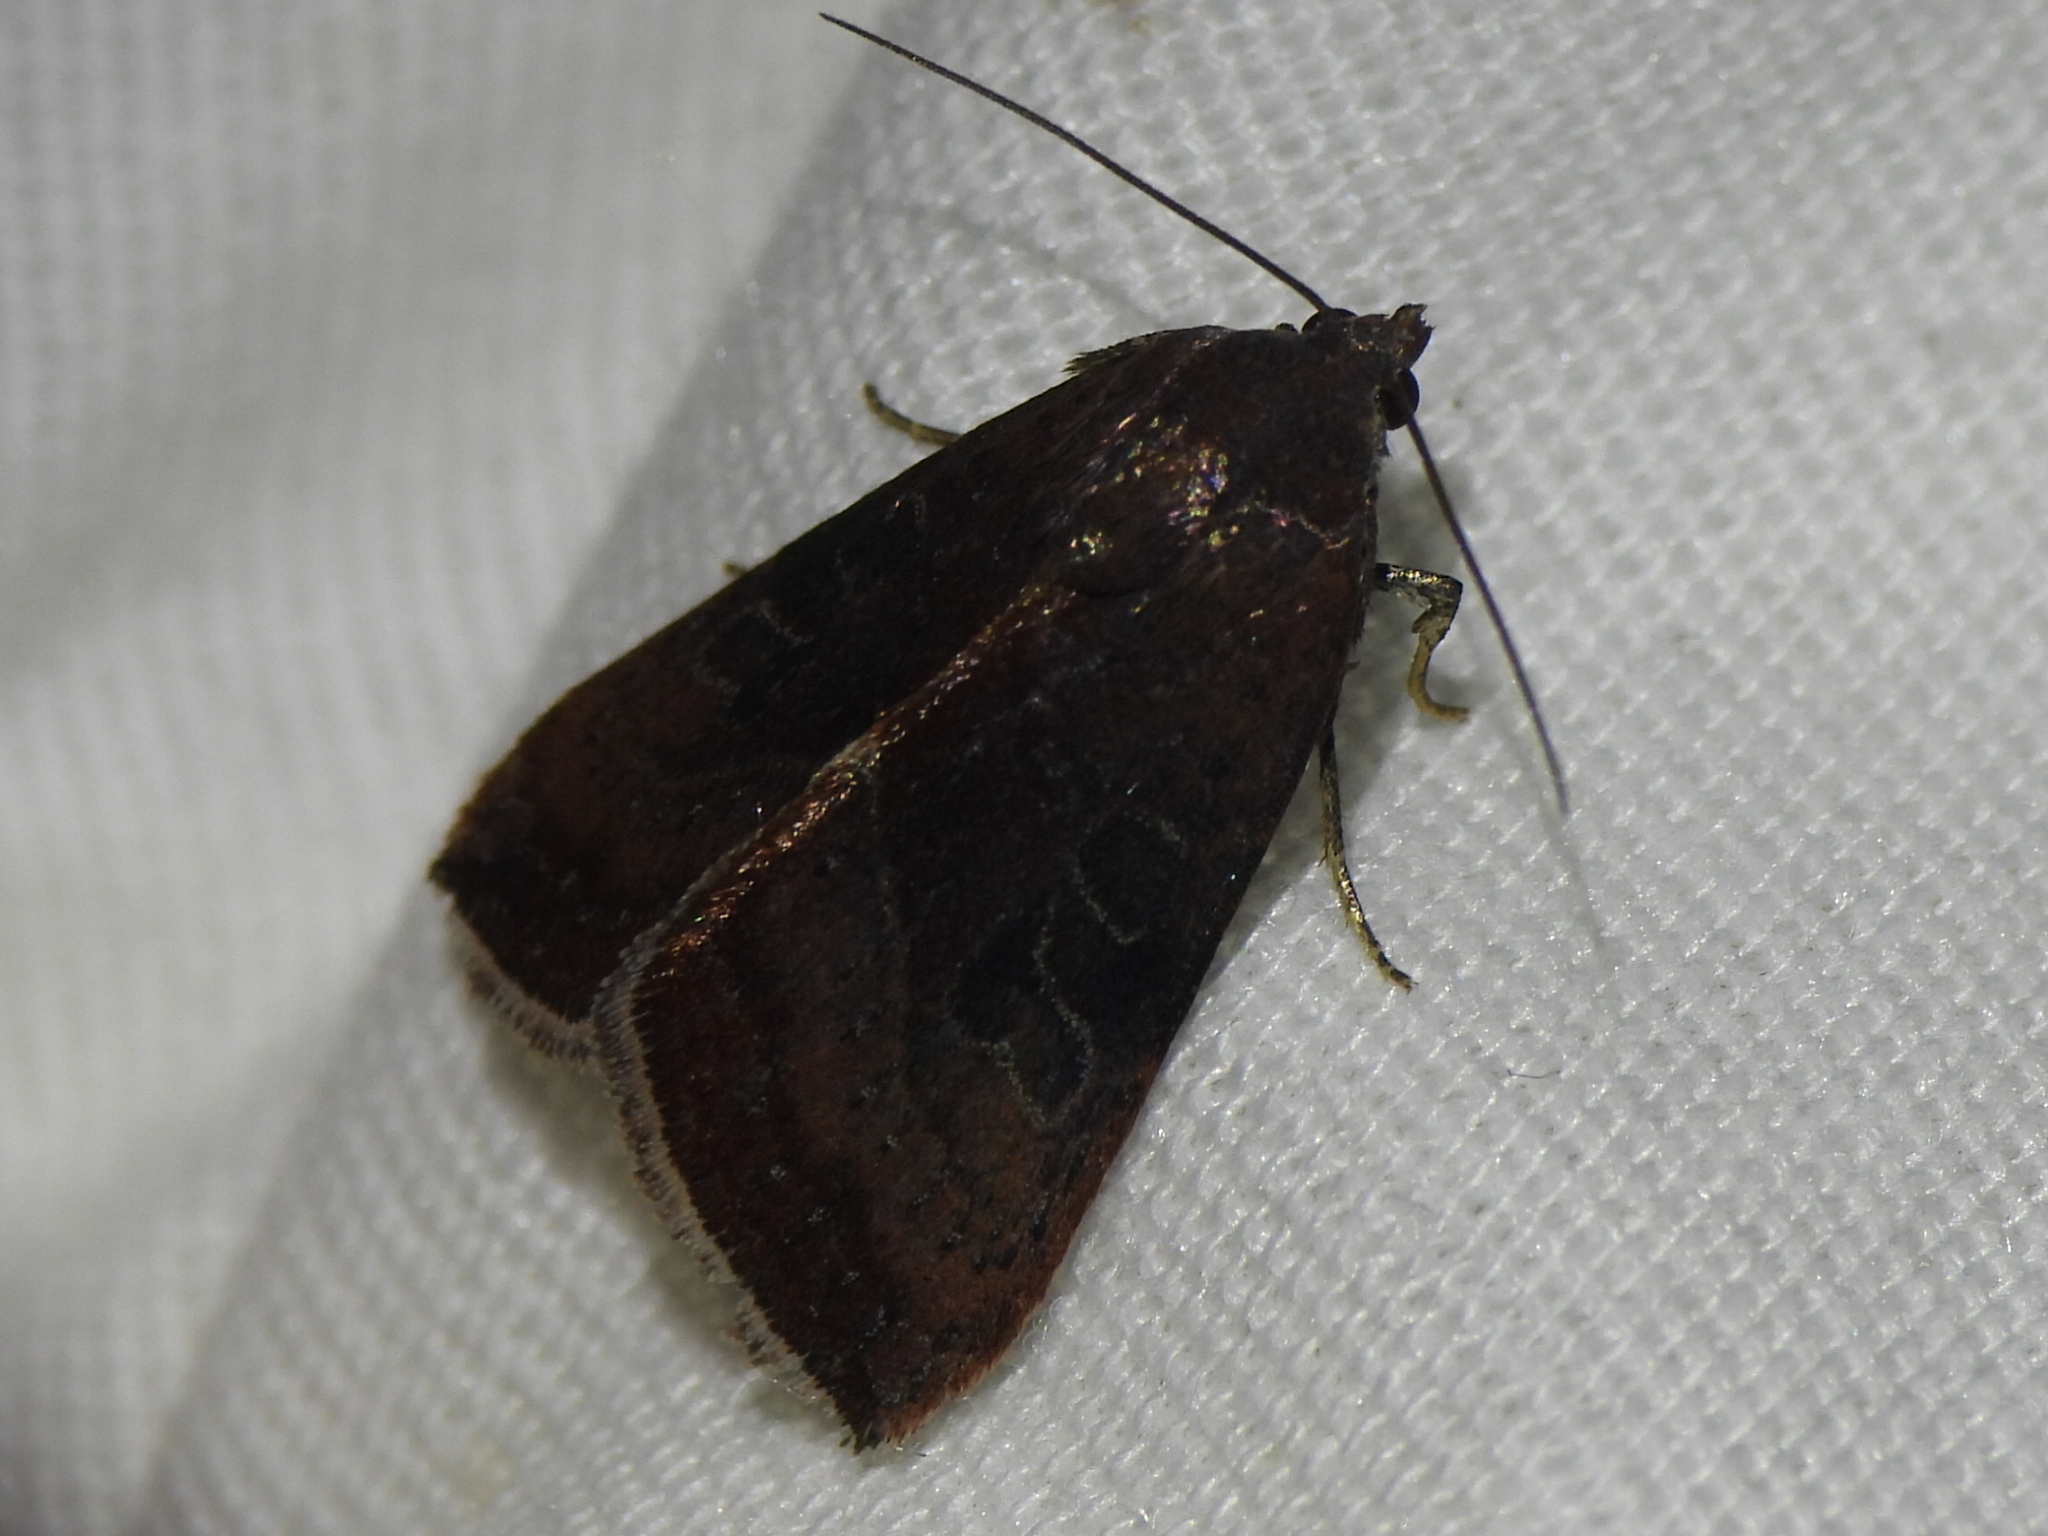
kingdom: Animalia
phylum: Arthropoda
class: Insecta
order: Lepidoptera
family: Noctuidae
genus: Galgula
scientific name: Galgula partita
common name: Wedgeling
